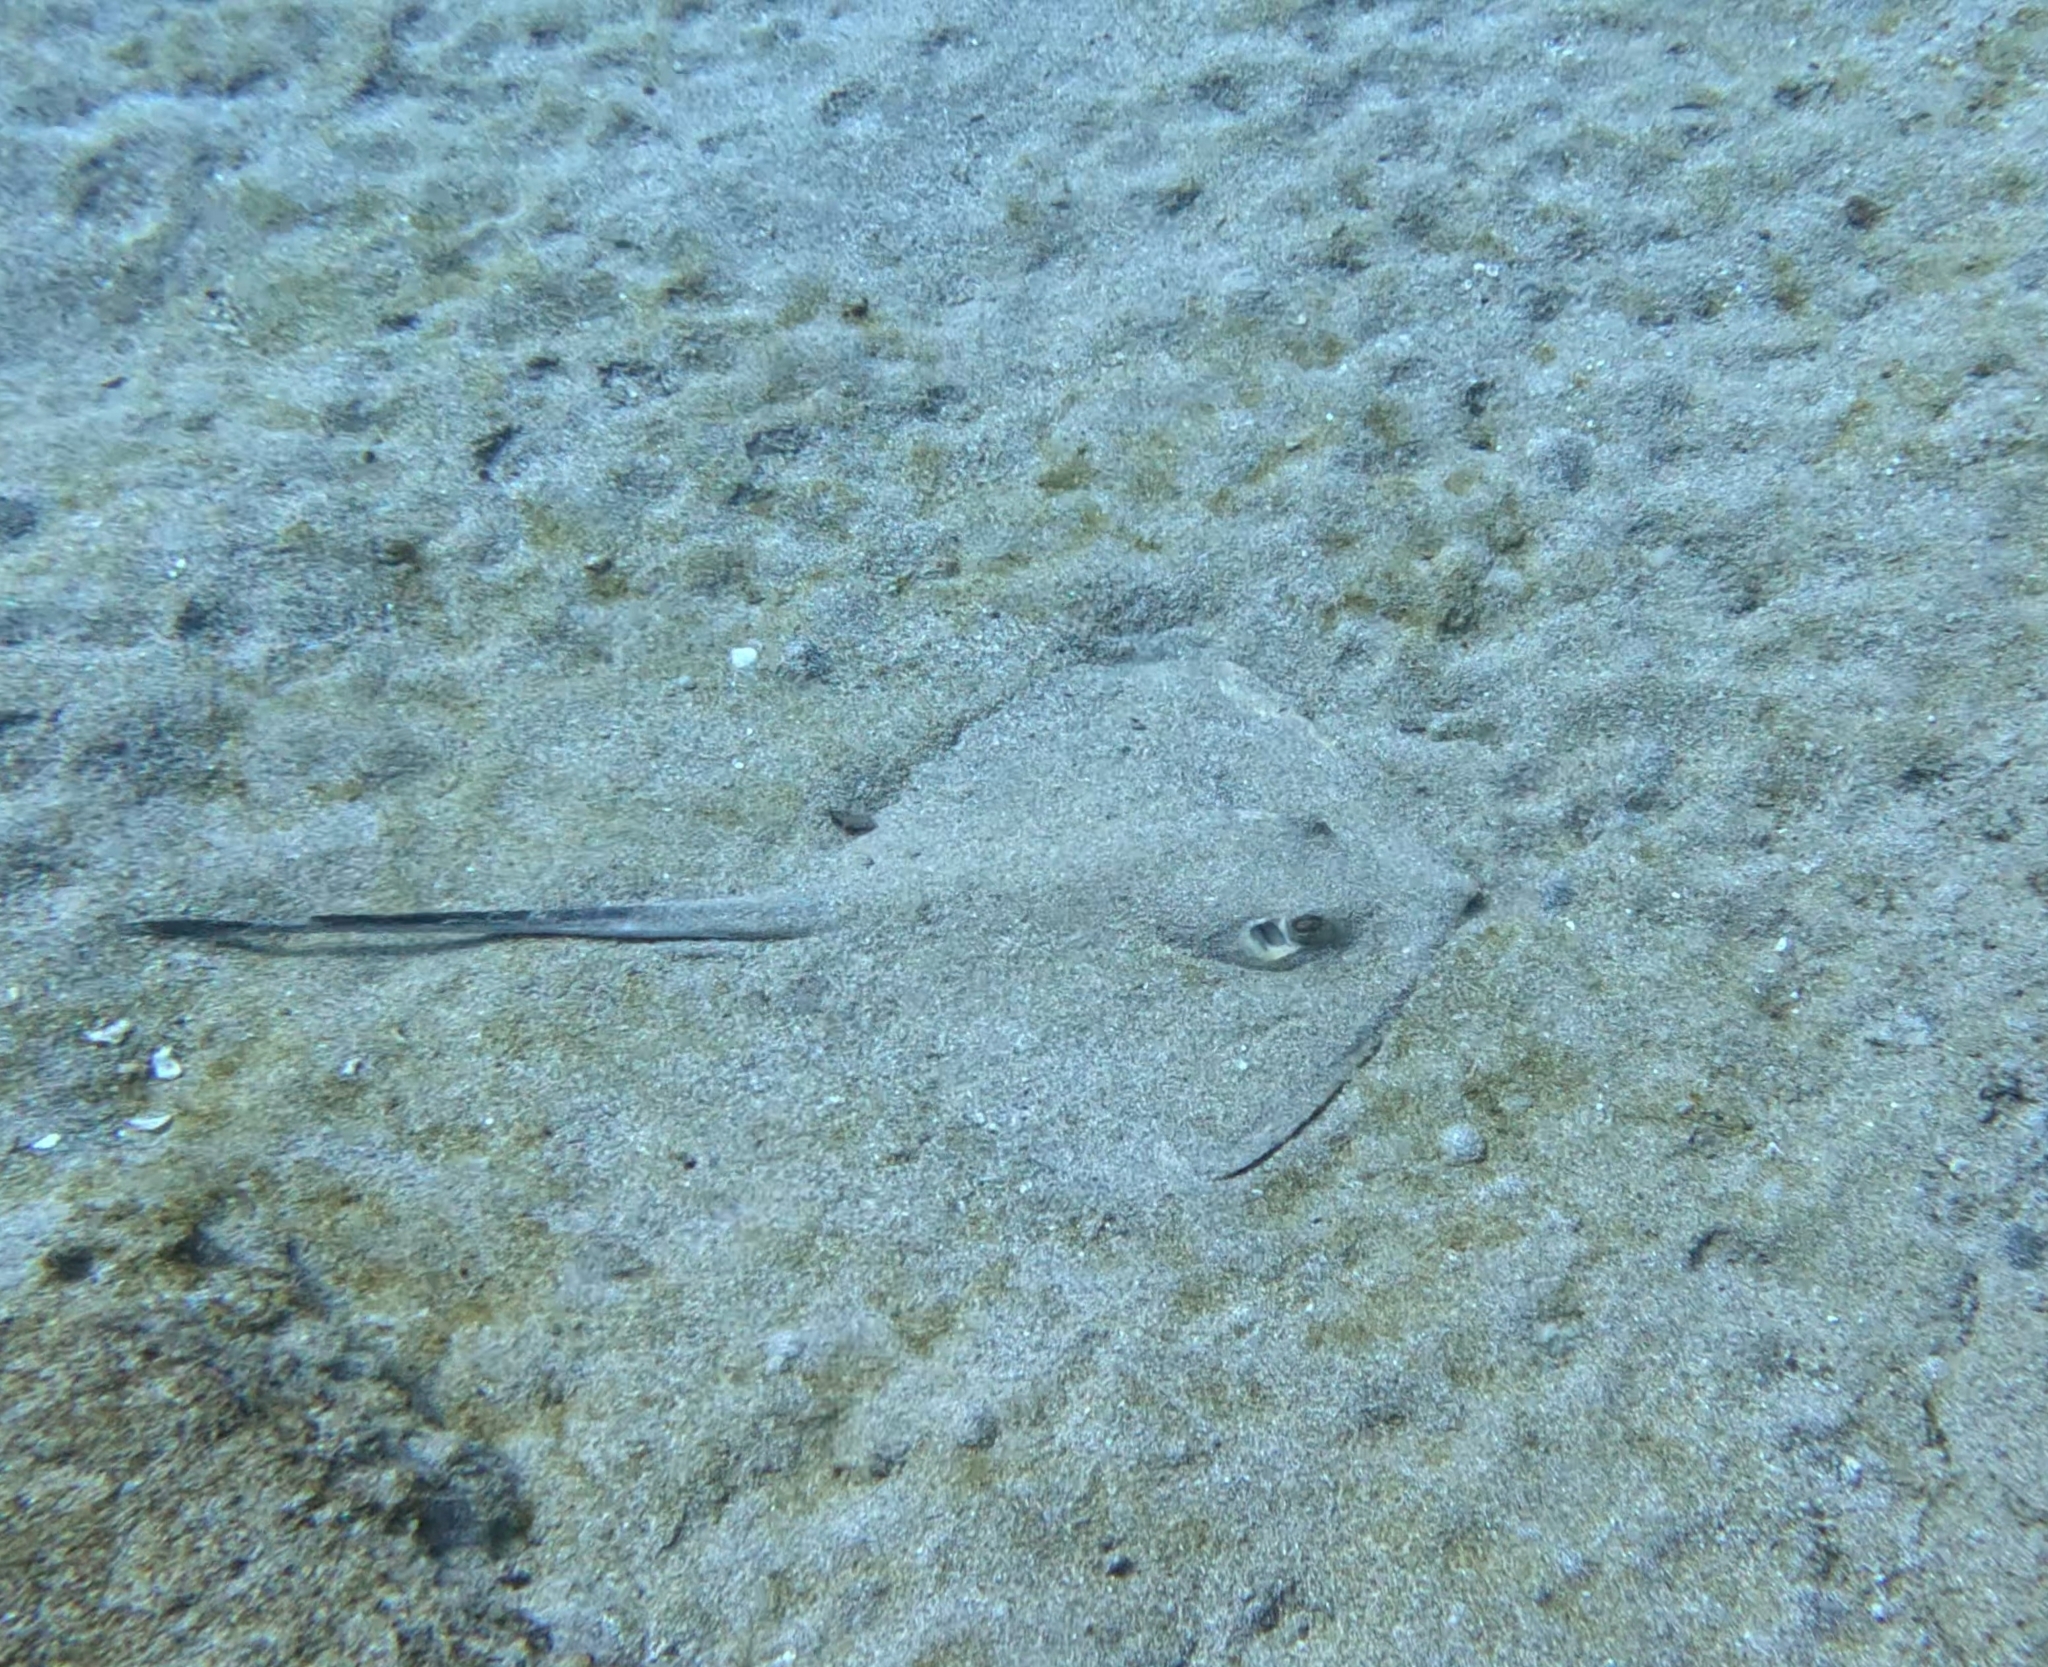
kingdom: Animalia
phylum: Chordata
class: Elasmobranchii
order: Myliobatiformes
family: Dasyatidae
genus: Dasyatis
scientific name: Dasyatis pastinaca
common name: Common stingray
